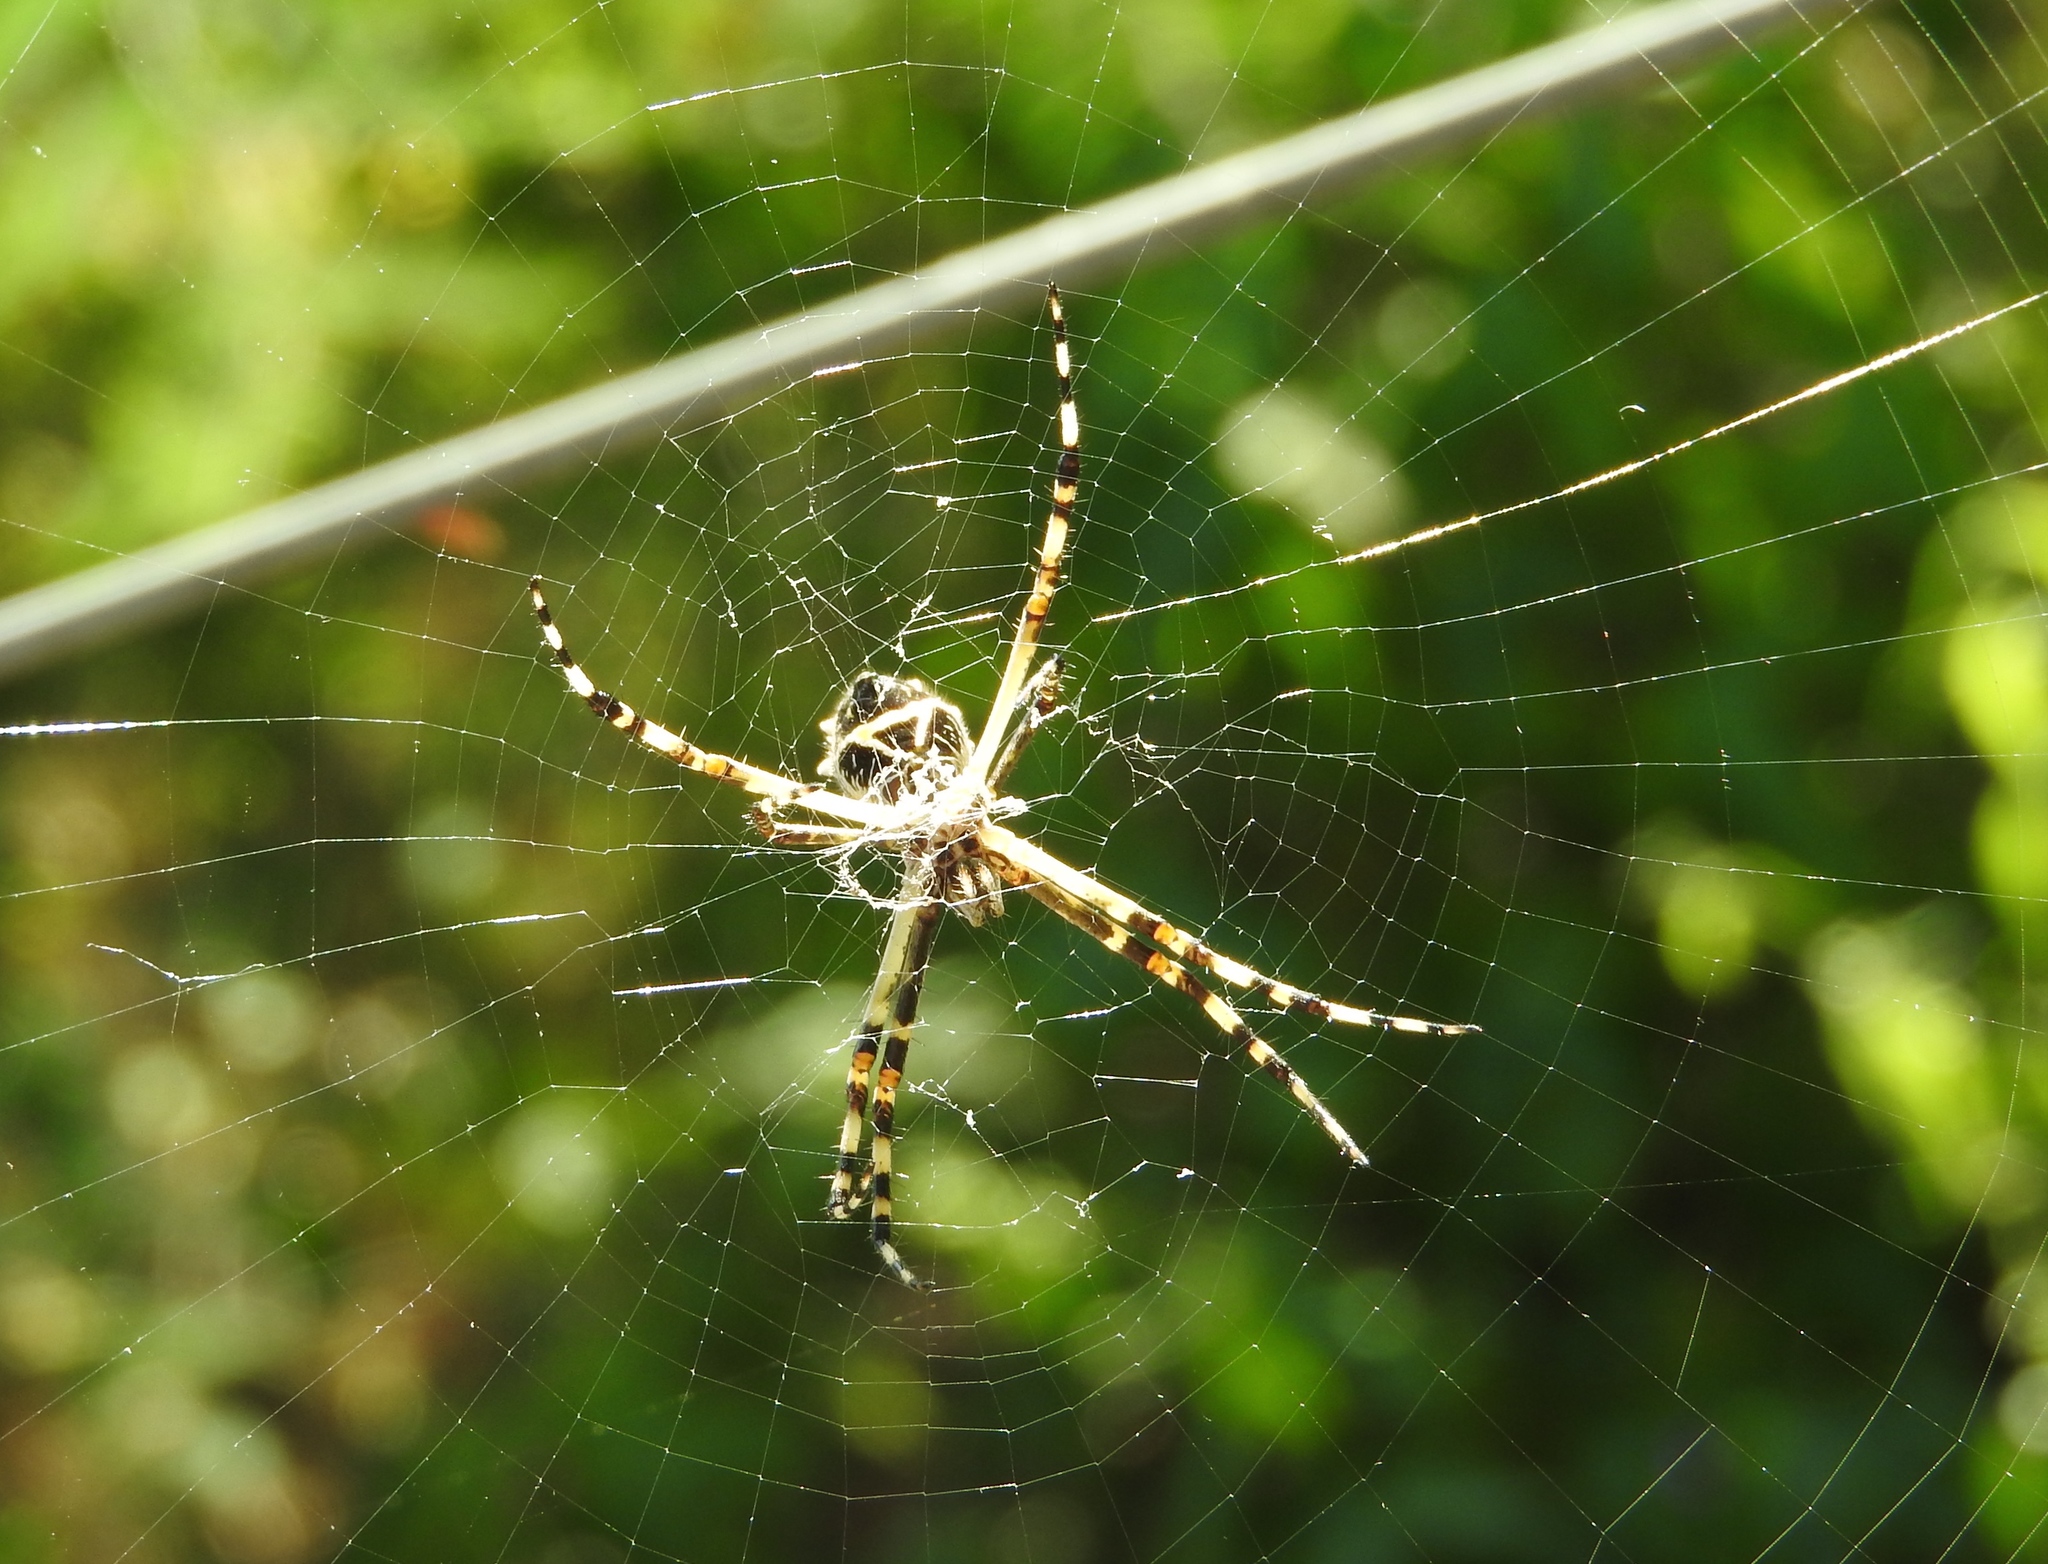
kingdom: Animalia
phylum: Arthropoda
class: Arachnida
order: Araneae
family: Araneidae
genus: Argiope
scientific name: Argiope argentata
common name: Orb weavers
